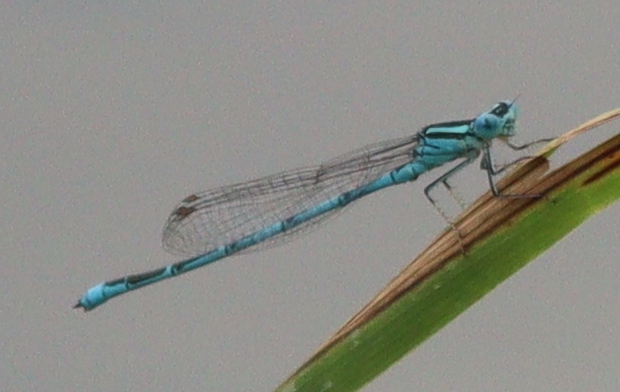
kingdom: Animalia
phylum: Arthropoda
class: Insecta
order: Odonata
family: Coenagrionidae
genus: Erythromma
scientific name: Erythromma lindenii
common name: Blue-eye
